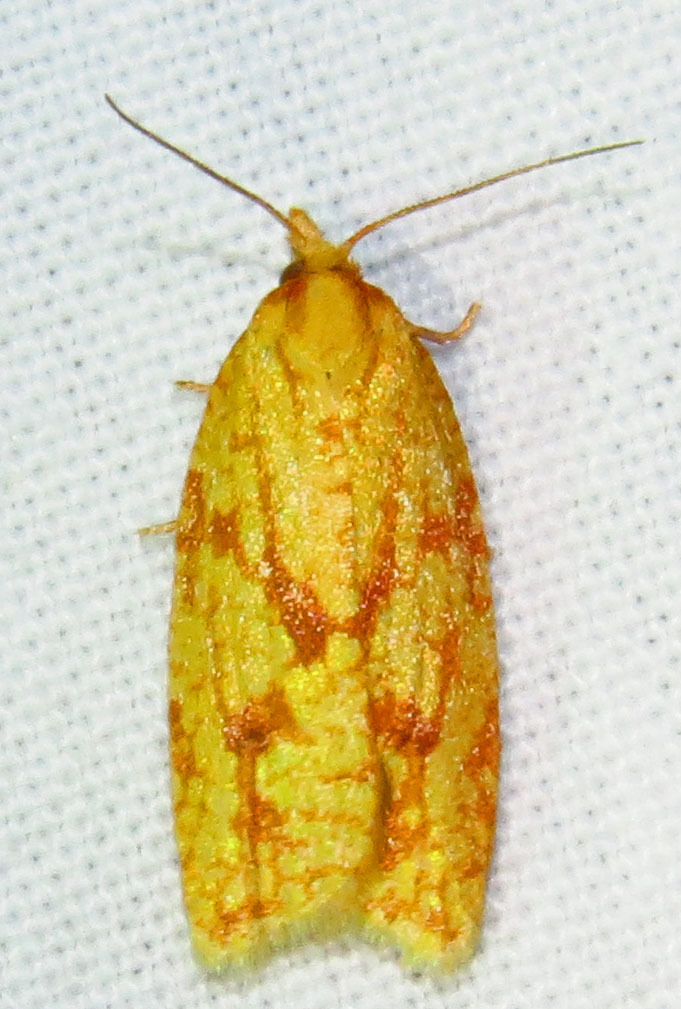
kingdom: Animalia
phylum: Arthropoda
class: Insecta
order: Lepidoptera
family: Tortricidae
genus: Sparganothis
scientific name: Sparganothis sulfureana
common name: Sparganothis fruitworm moth
